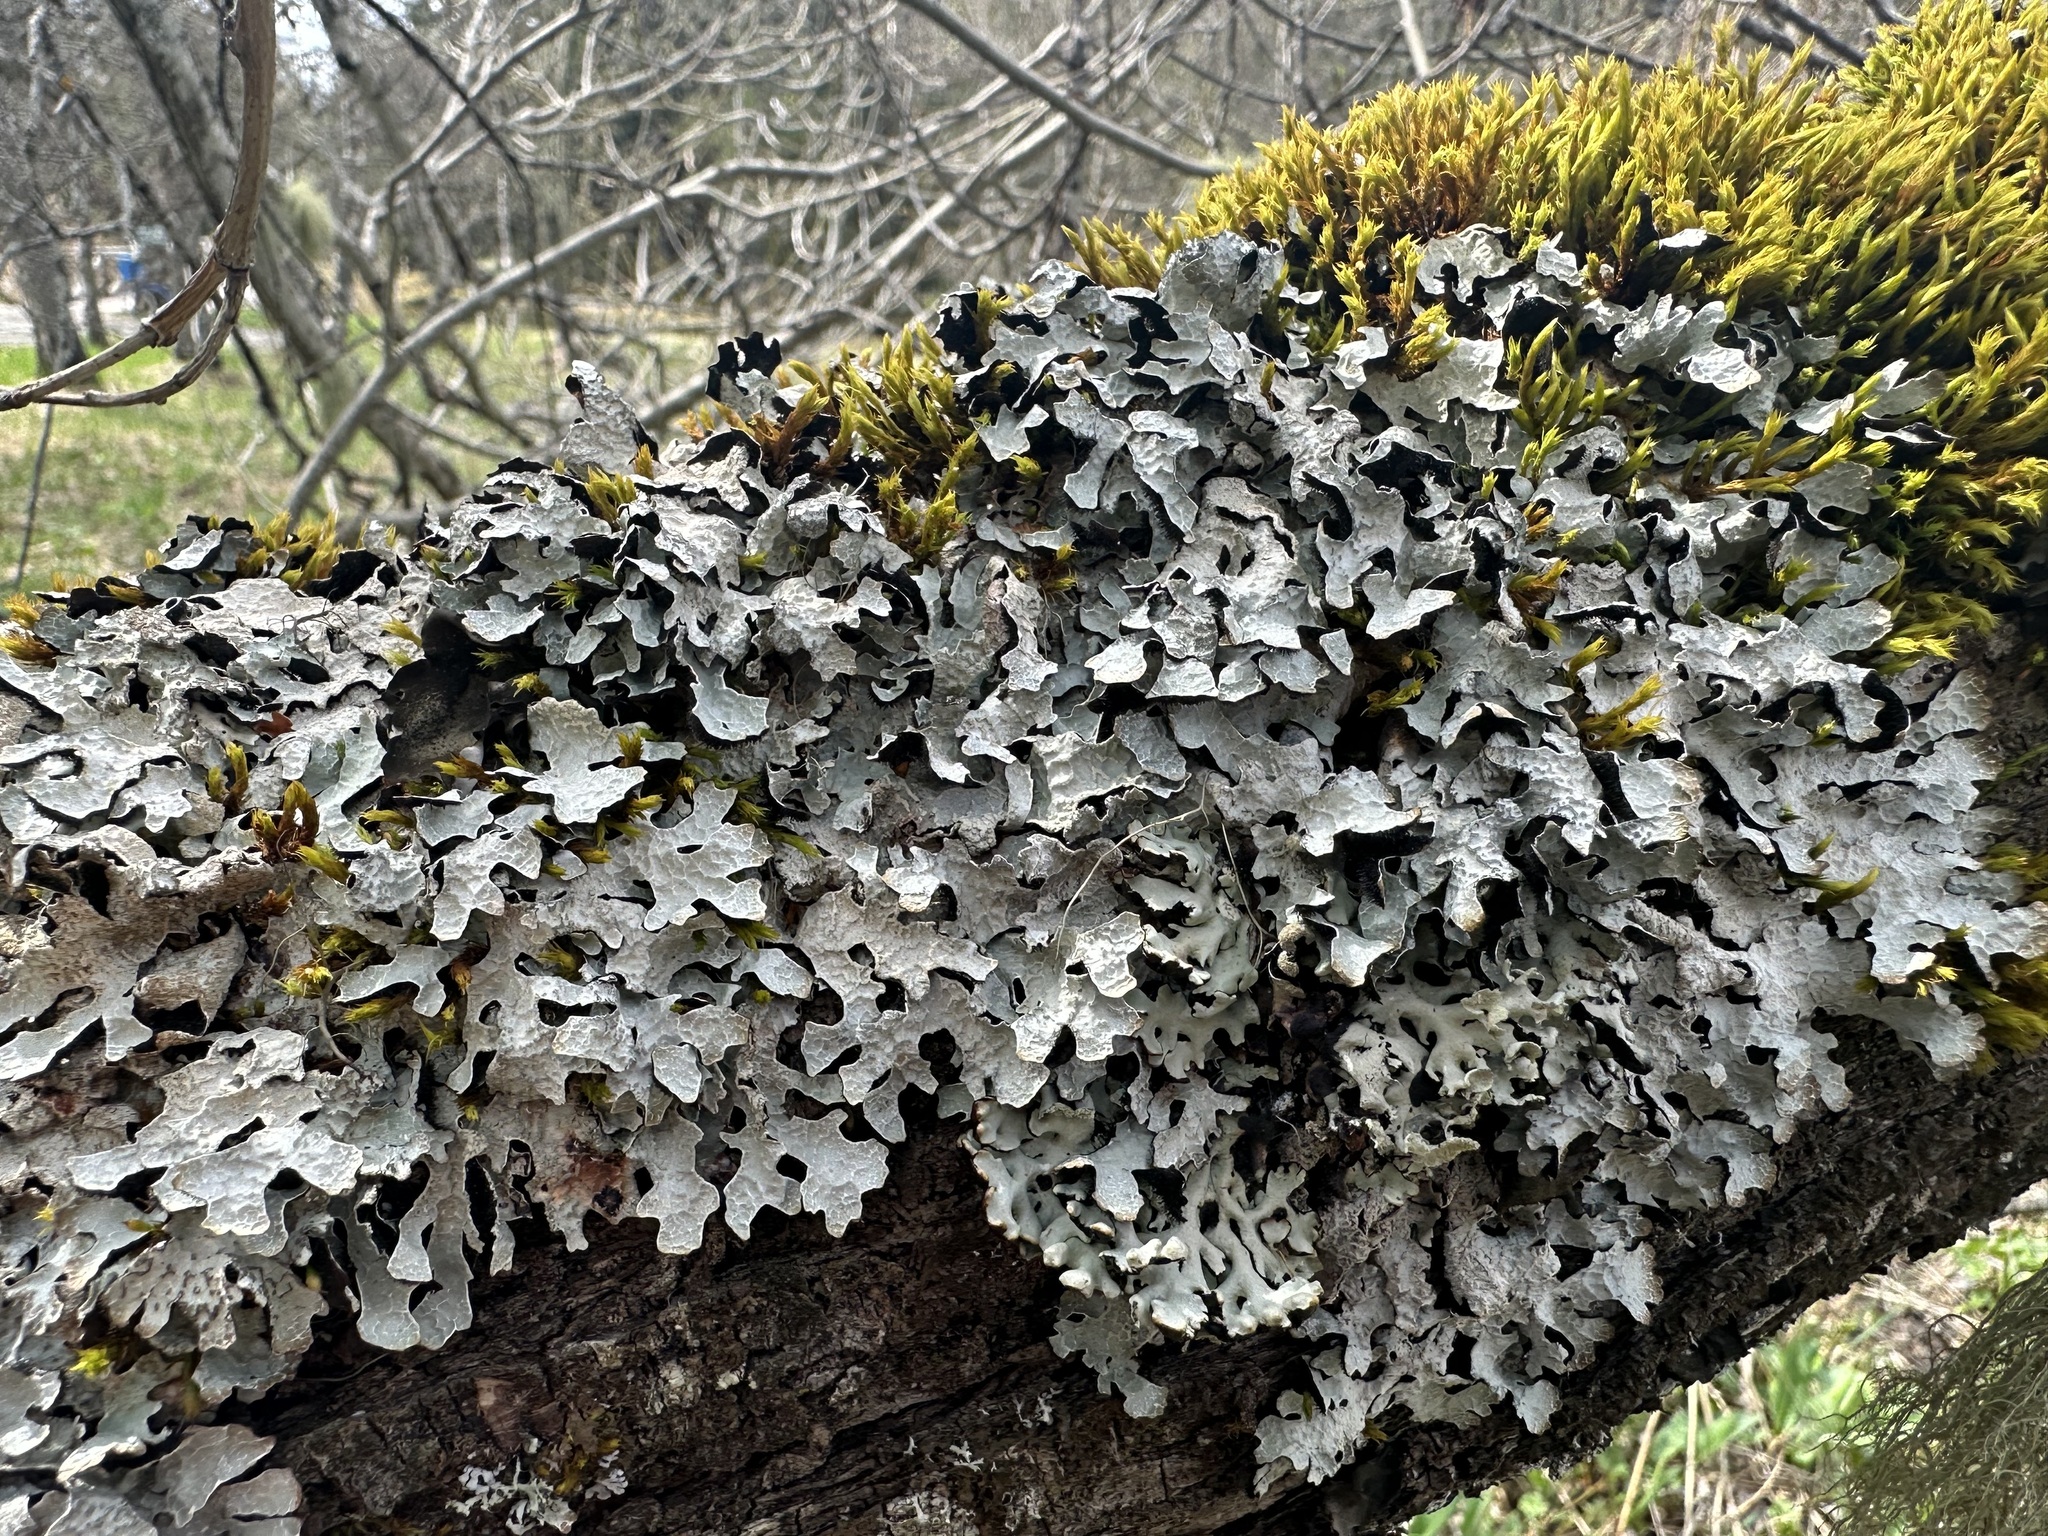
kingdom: Fungi
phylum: Ascomycota
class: Lecanoromycetes
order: Lecanorales
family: Parmeliaceae
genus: Parmelia
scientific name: Parmelia sulcata
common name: Netted shield lichen
